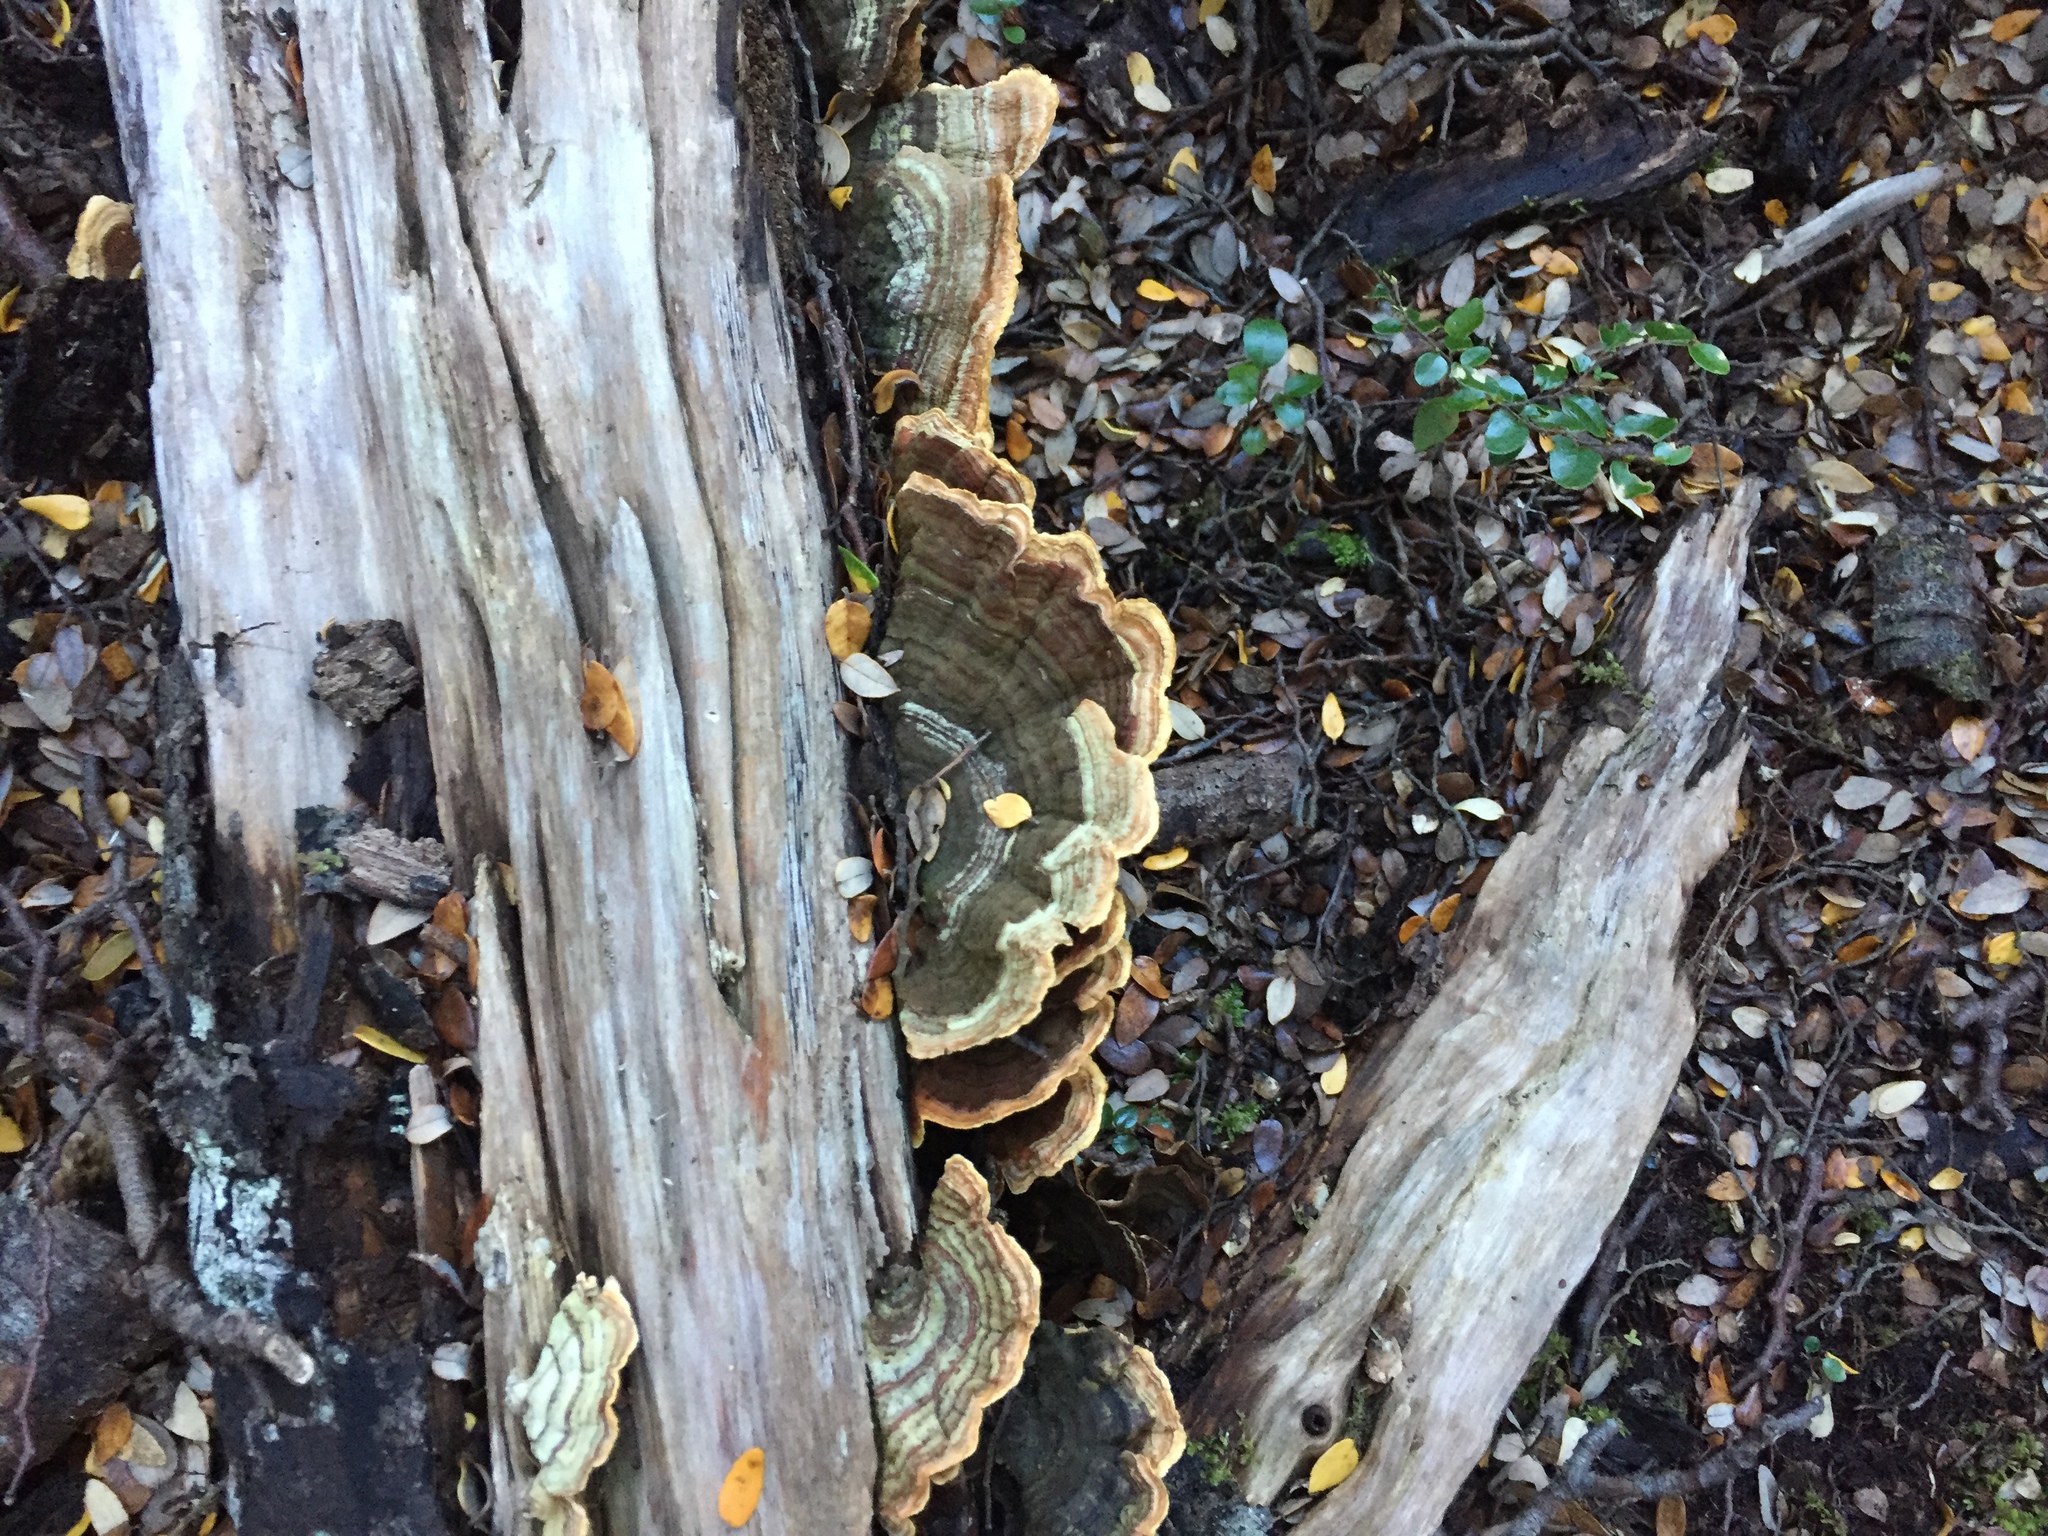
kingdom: Fungi
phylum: Basidiomycota
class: Agaricomycetes
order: Russulales
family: Stereaceae
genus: Stereum
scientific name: Stereum versicolor
